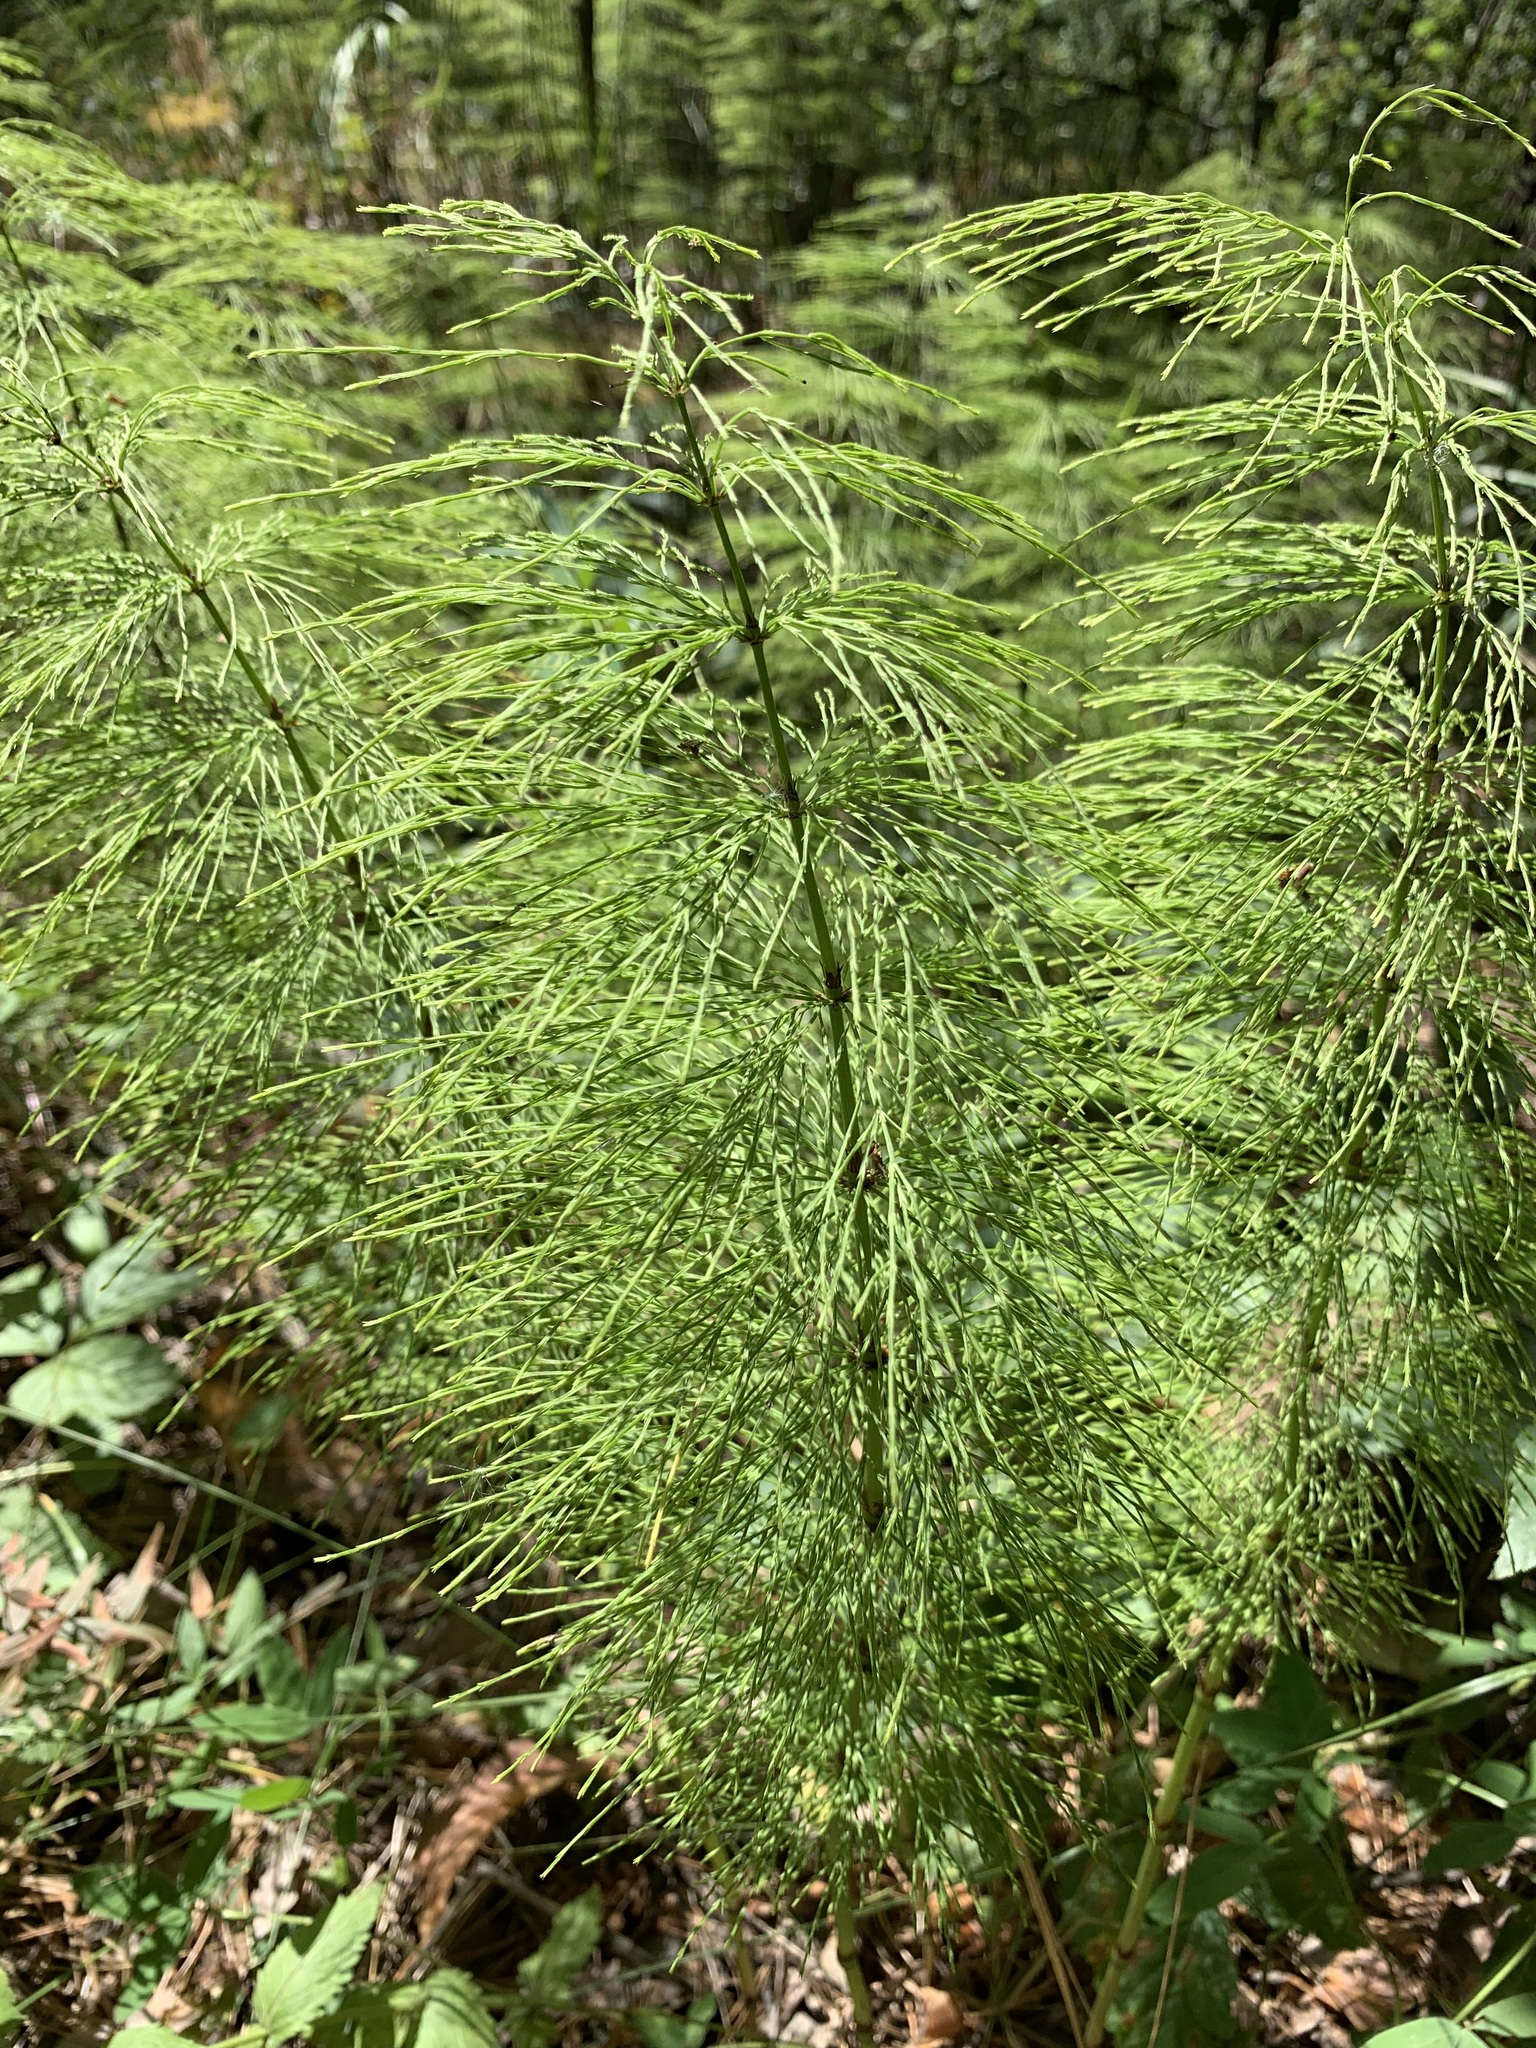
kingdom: Plantae
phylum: Tracheophyta
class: Polypodiopsida
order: Equisetales
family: Equisetaceae
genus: Equisetum
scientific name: Equisetum sylvaticum
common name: Wood horsetail
